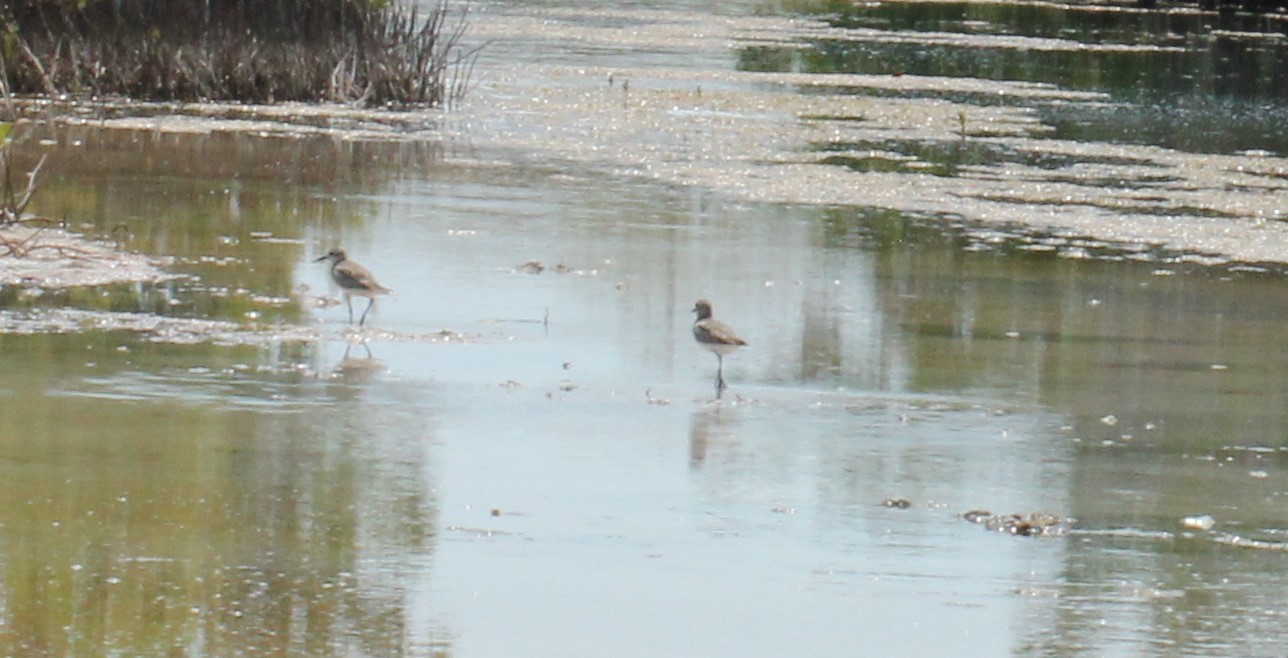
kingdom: Animalia
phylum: Chordata
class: Aves
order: Charadriiformes
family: Recurvirostridae
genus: Himantopus
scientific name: Himantopus mexicanus
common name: Black-necked stilt
